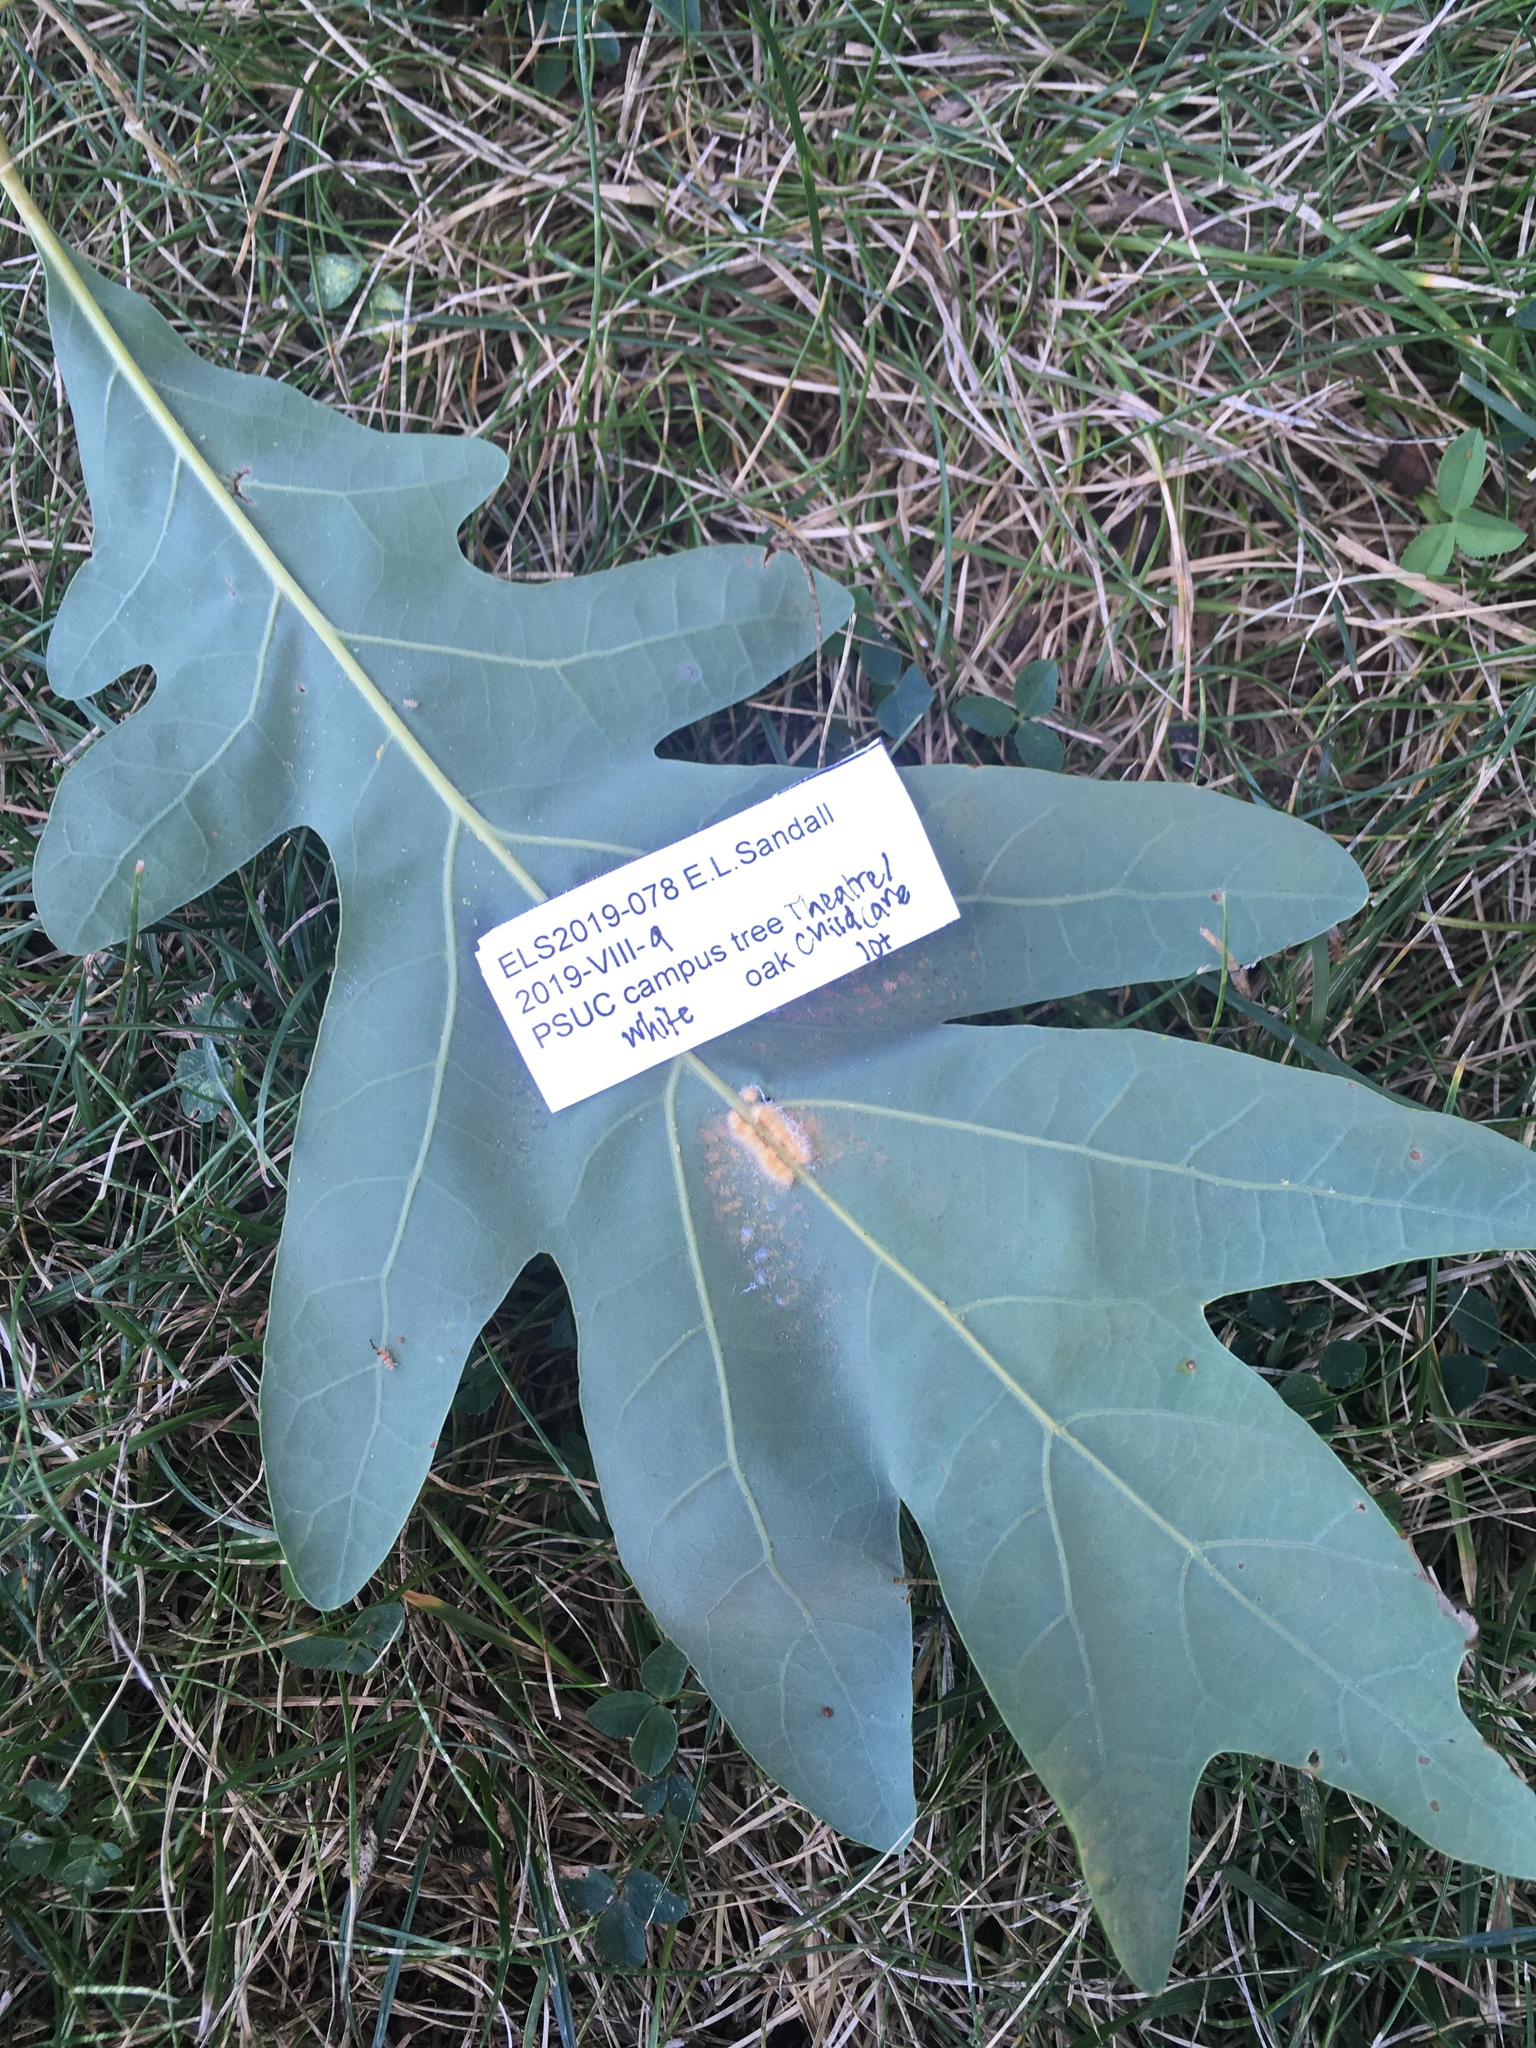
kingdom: Animalia
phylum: Arthropoda
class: Insecta
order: Hymenoptera
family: Cynipidae
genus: Andricus
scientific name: Andricus
